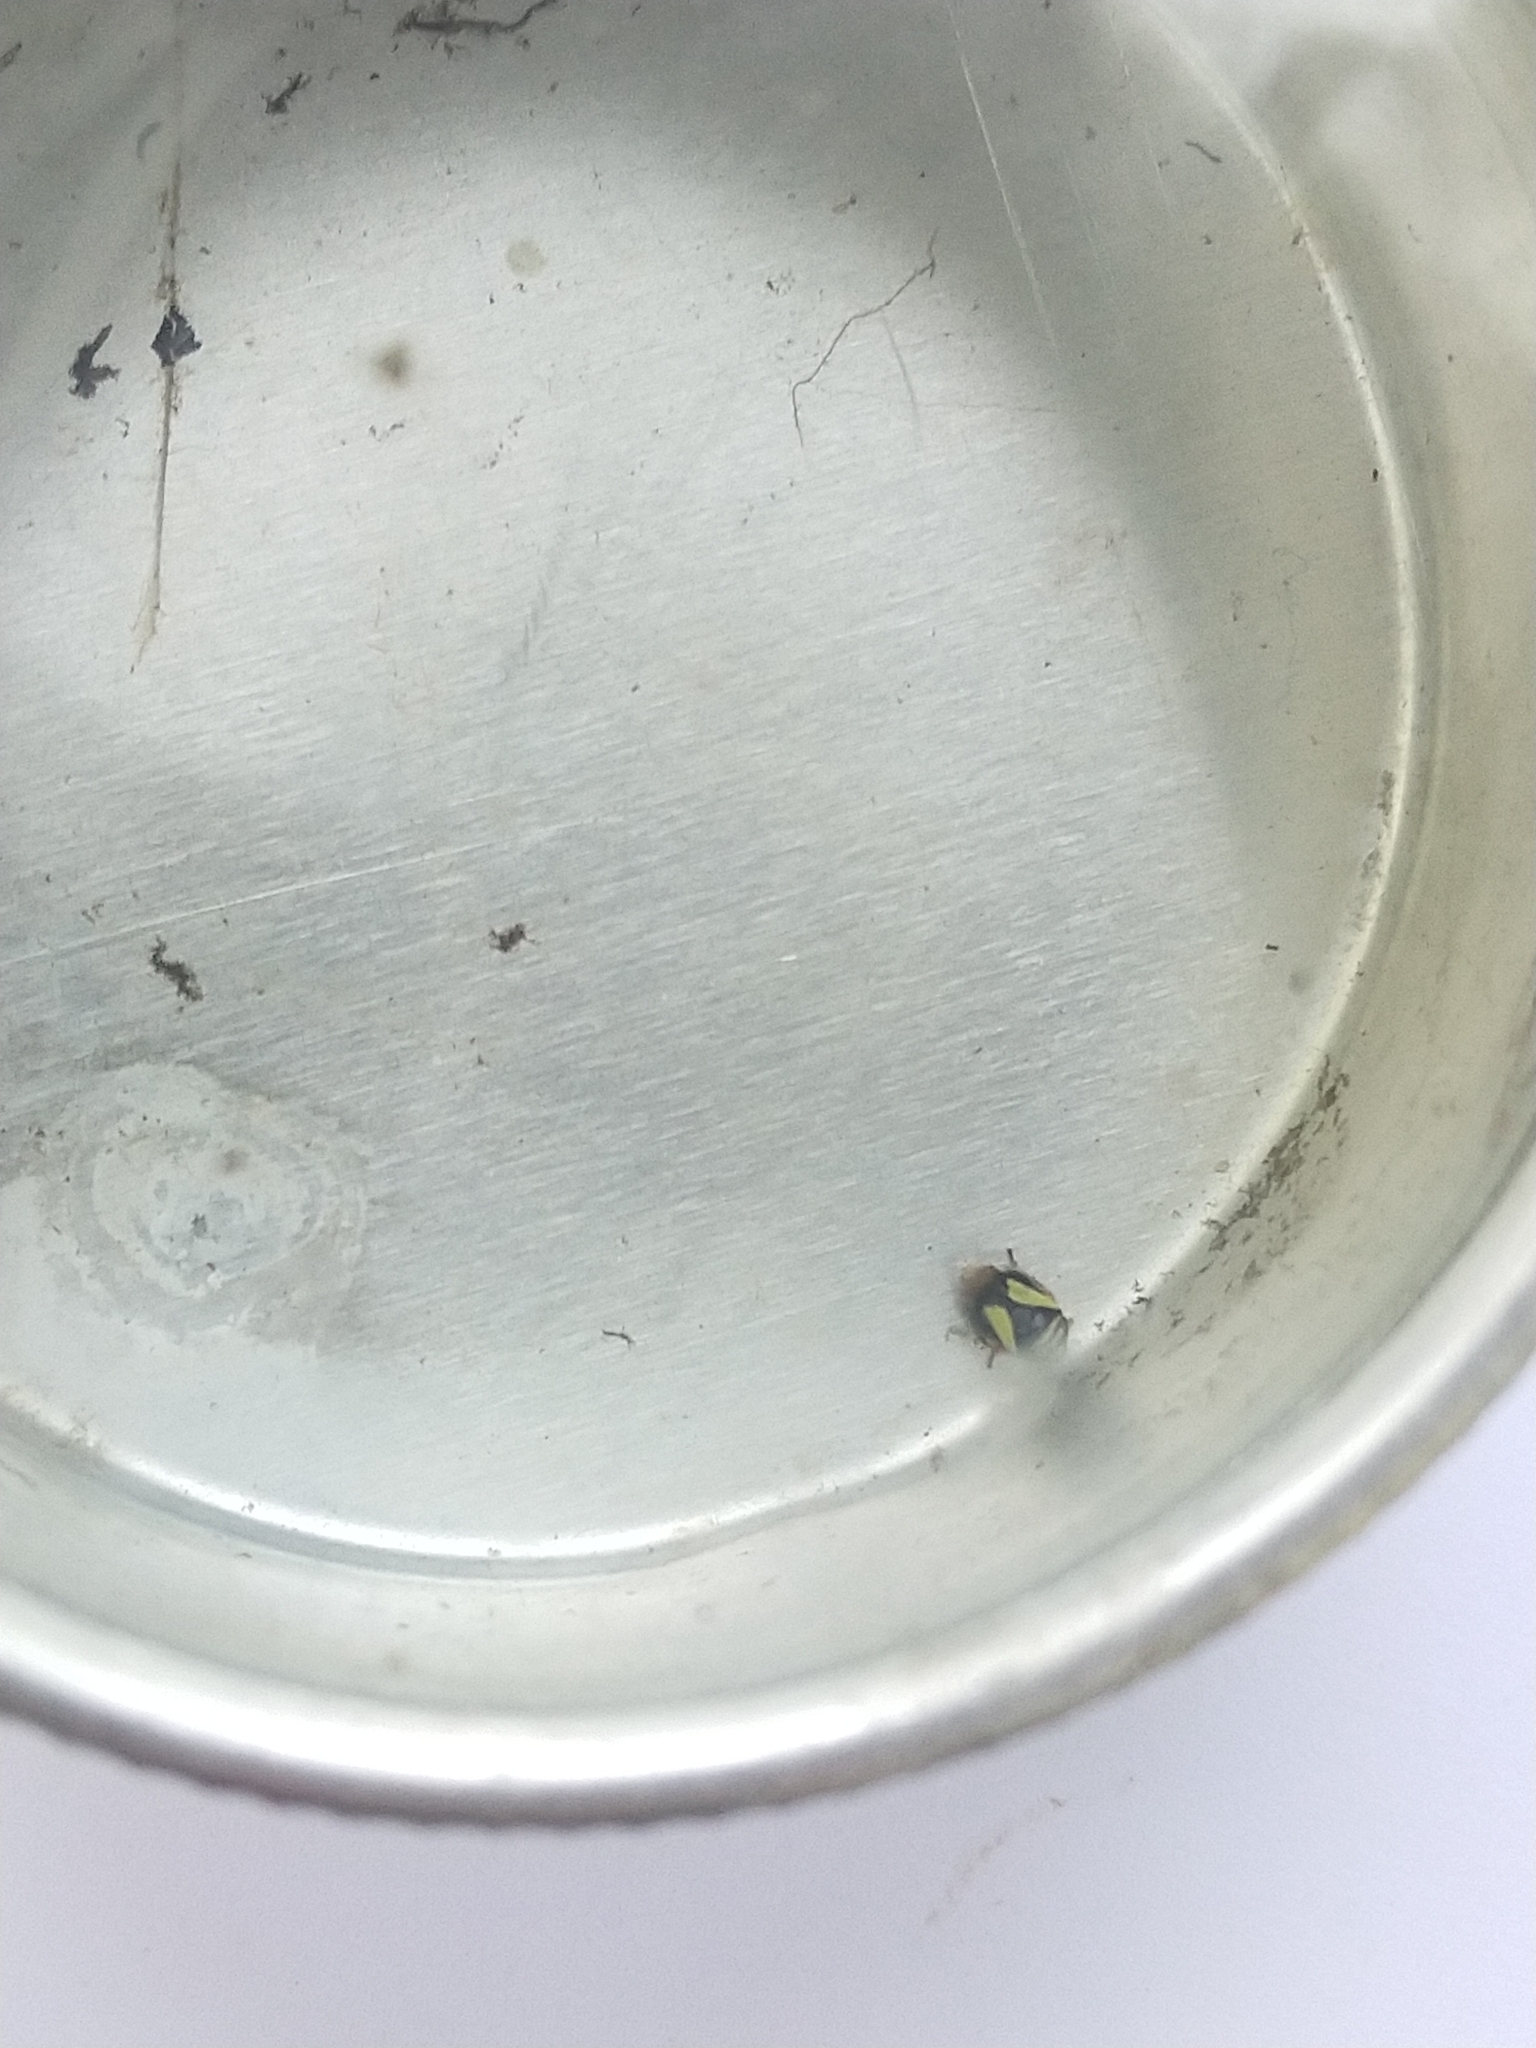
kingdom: Animalia
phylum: Arthropoda
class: Insecta
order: Hemiptera
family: Clastopteridae
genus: Clastoptera
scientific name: Clastoptera proteus
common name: Dogwood spittlebug
